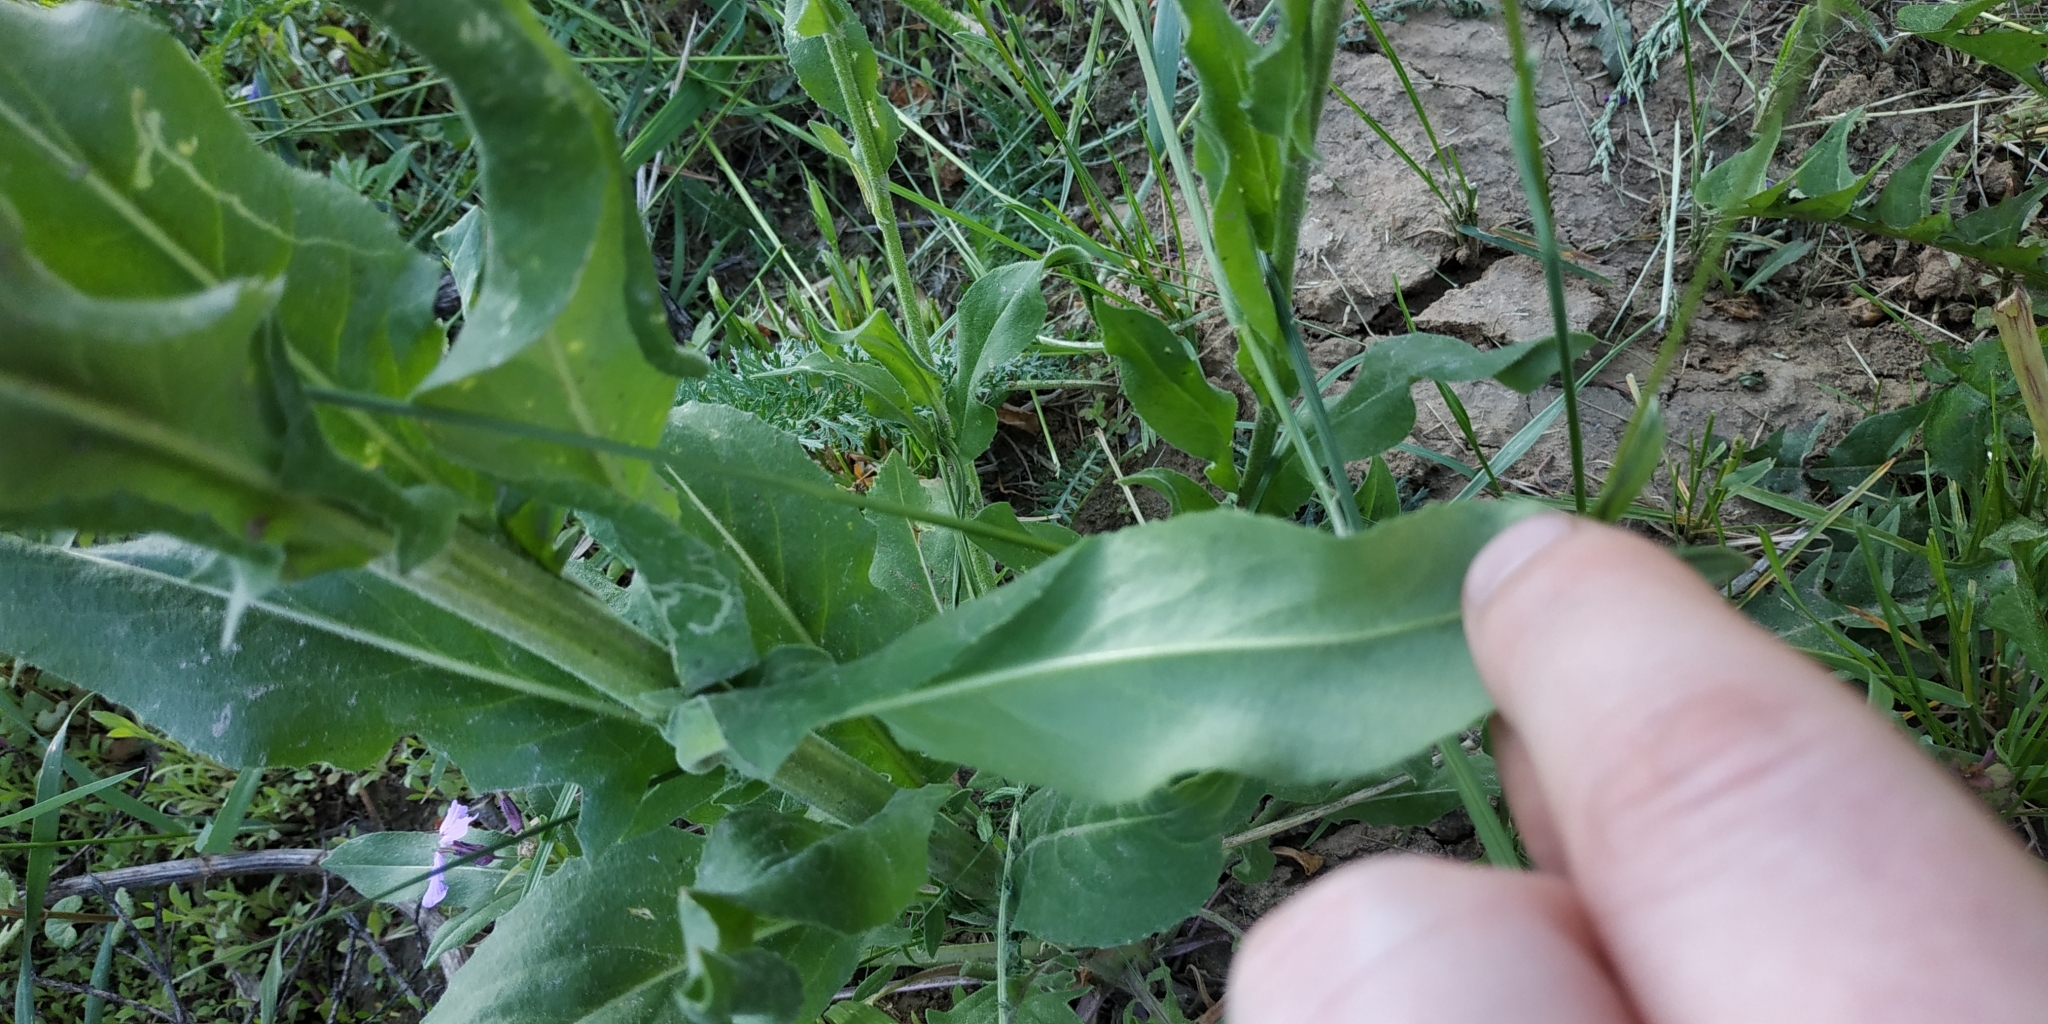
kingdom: Plantae
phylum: Tracheophyta
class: Magnoliopsida
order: Brassicales
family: Brassicaceae
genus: Hesperis
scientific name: Hesperis matronalis
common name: Dame's-violet
